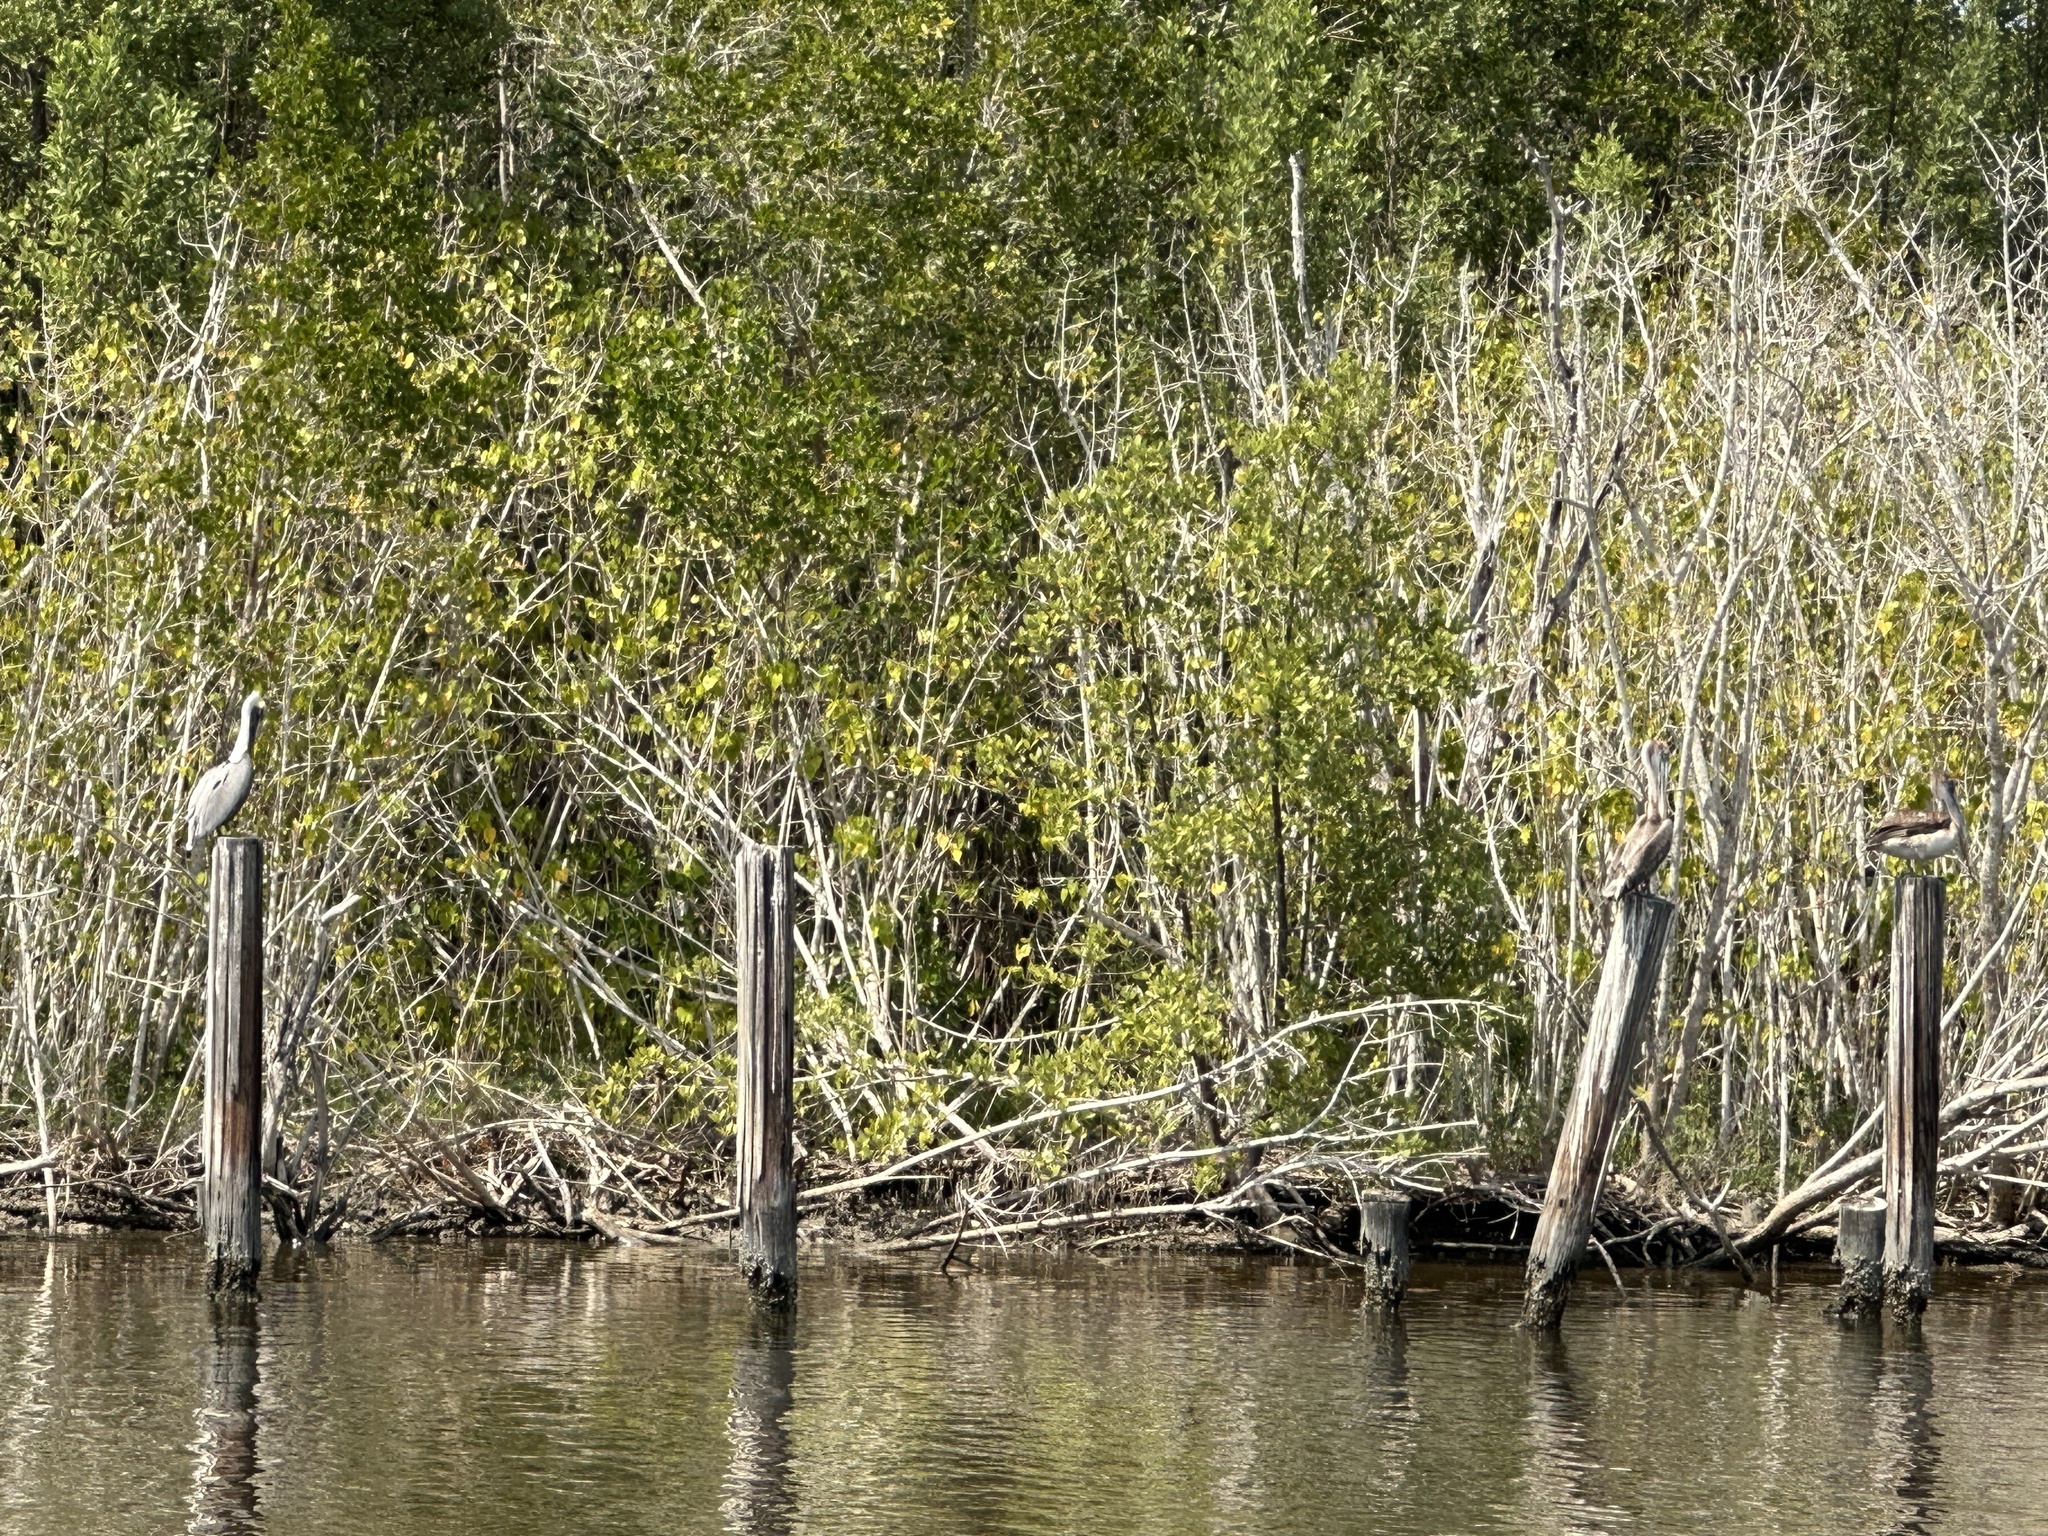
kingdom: Animalia
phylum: Chordata
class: Aves
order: Pelecaniformes
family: Pelecanidae
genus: Pelecanus
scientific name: Pelecanus occidentalis
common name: Brown pelican
